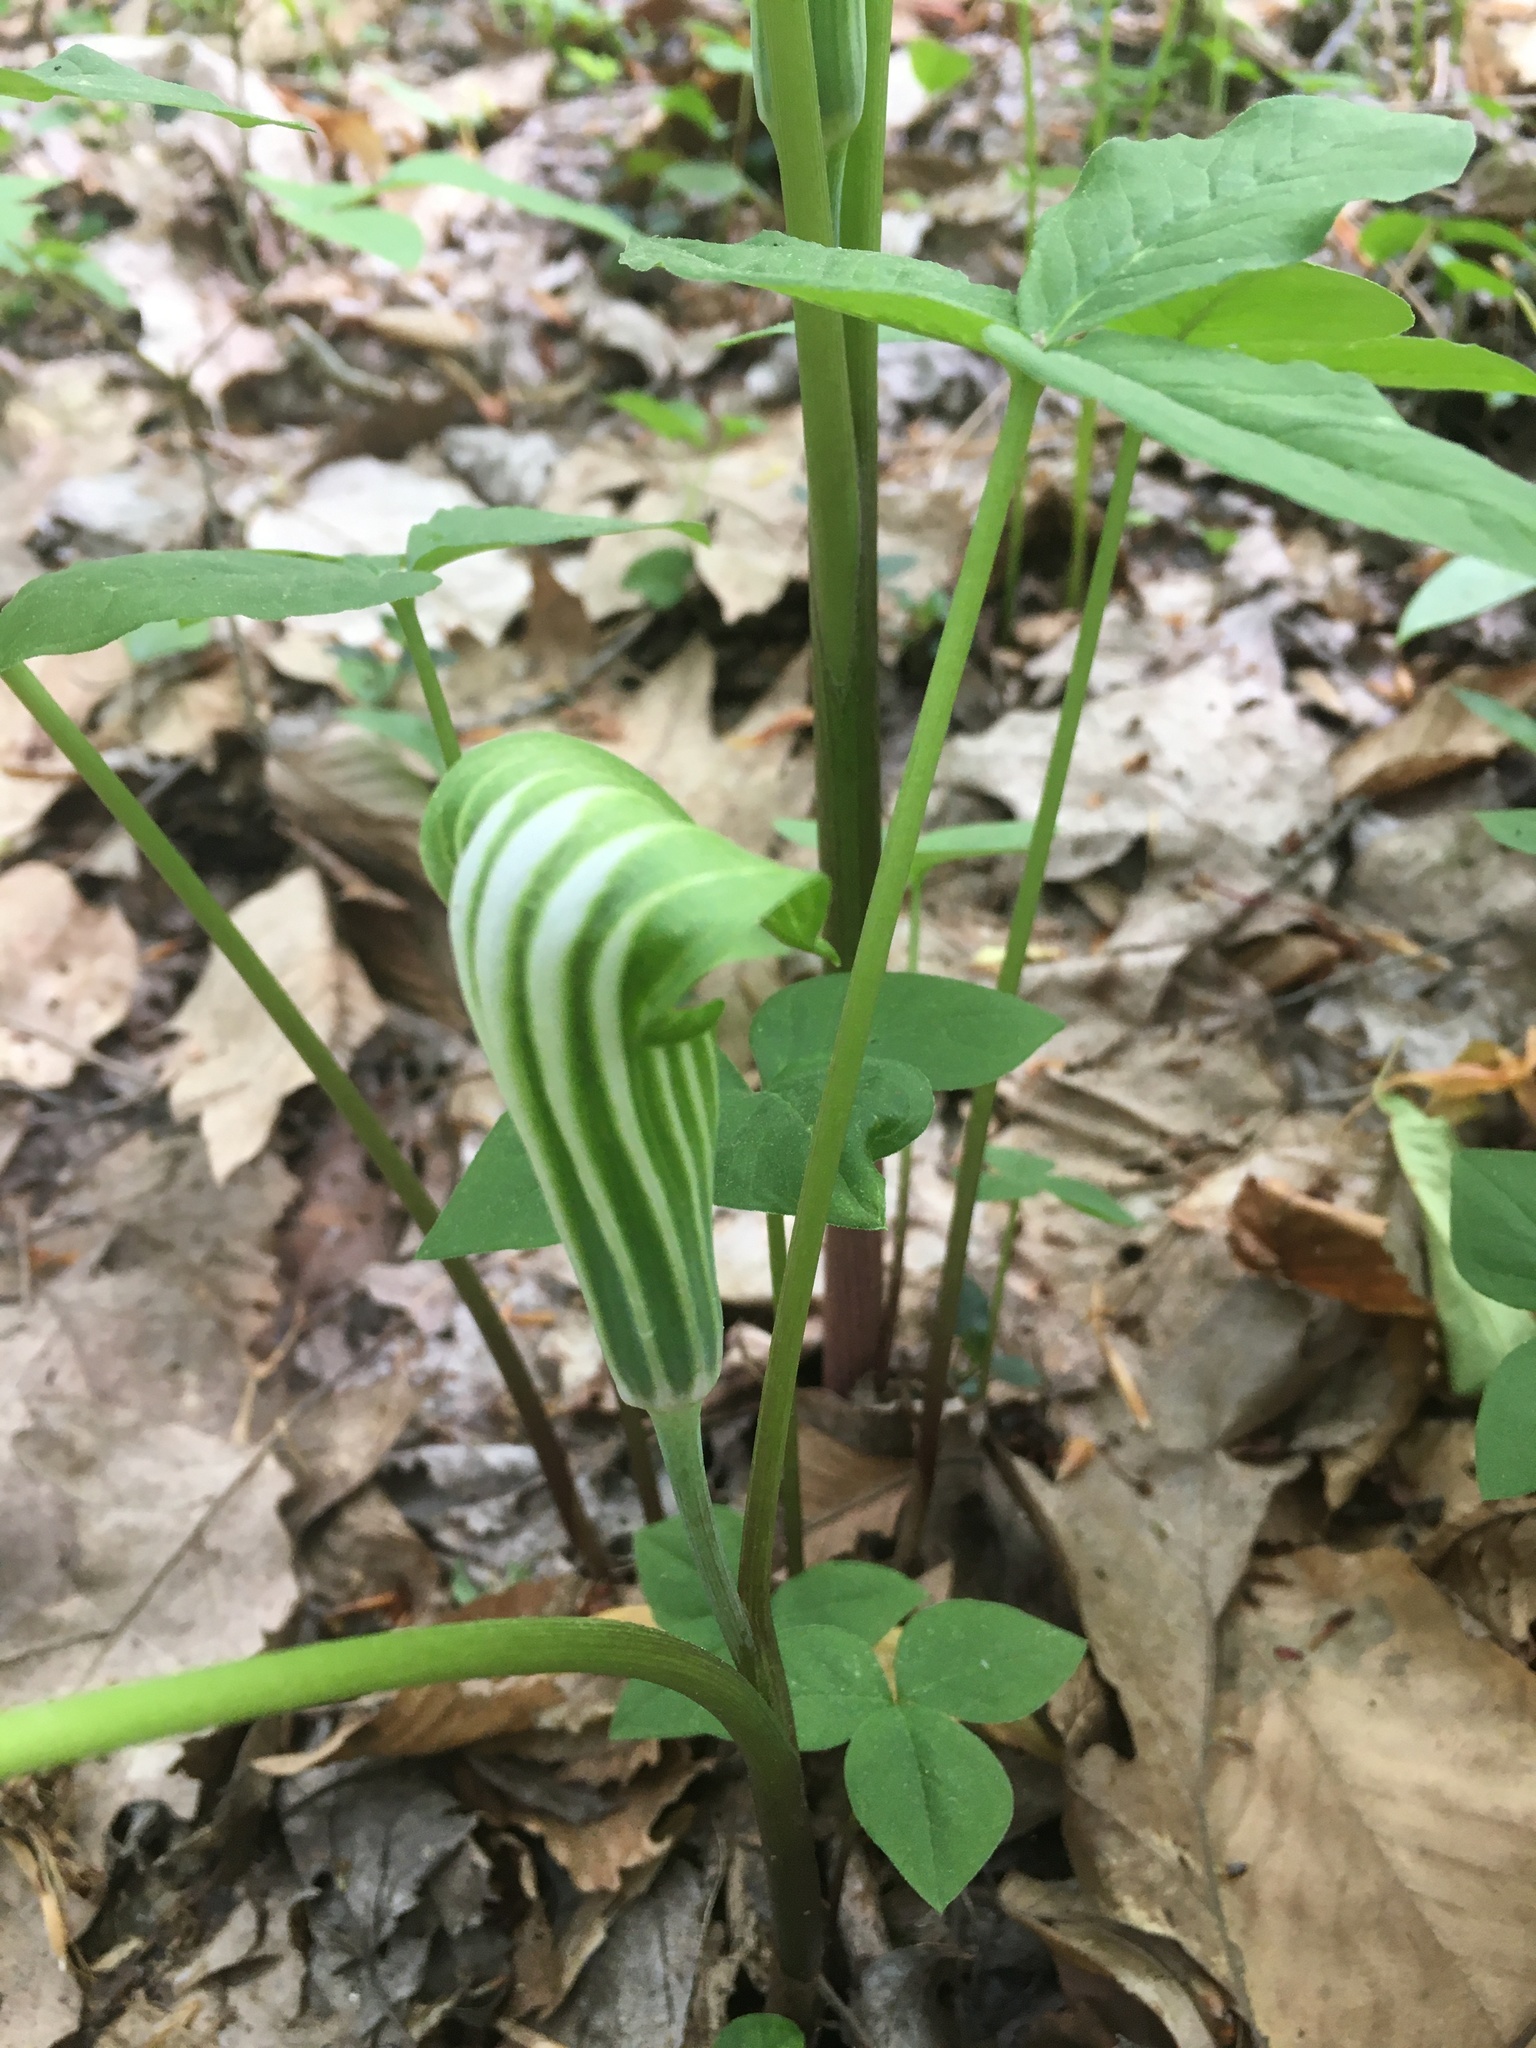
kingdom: Plantae
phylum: Tracheophyta
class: Liliopsida
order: Alismatales
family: Araceae
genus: Arisaema
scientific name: Arisaema stewardsonii
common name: Swamp jack-in-the-pulpit
